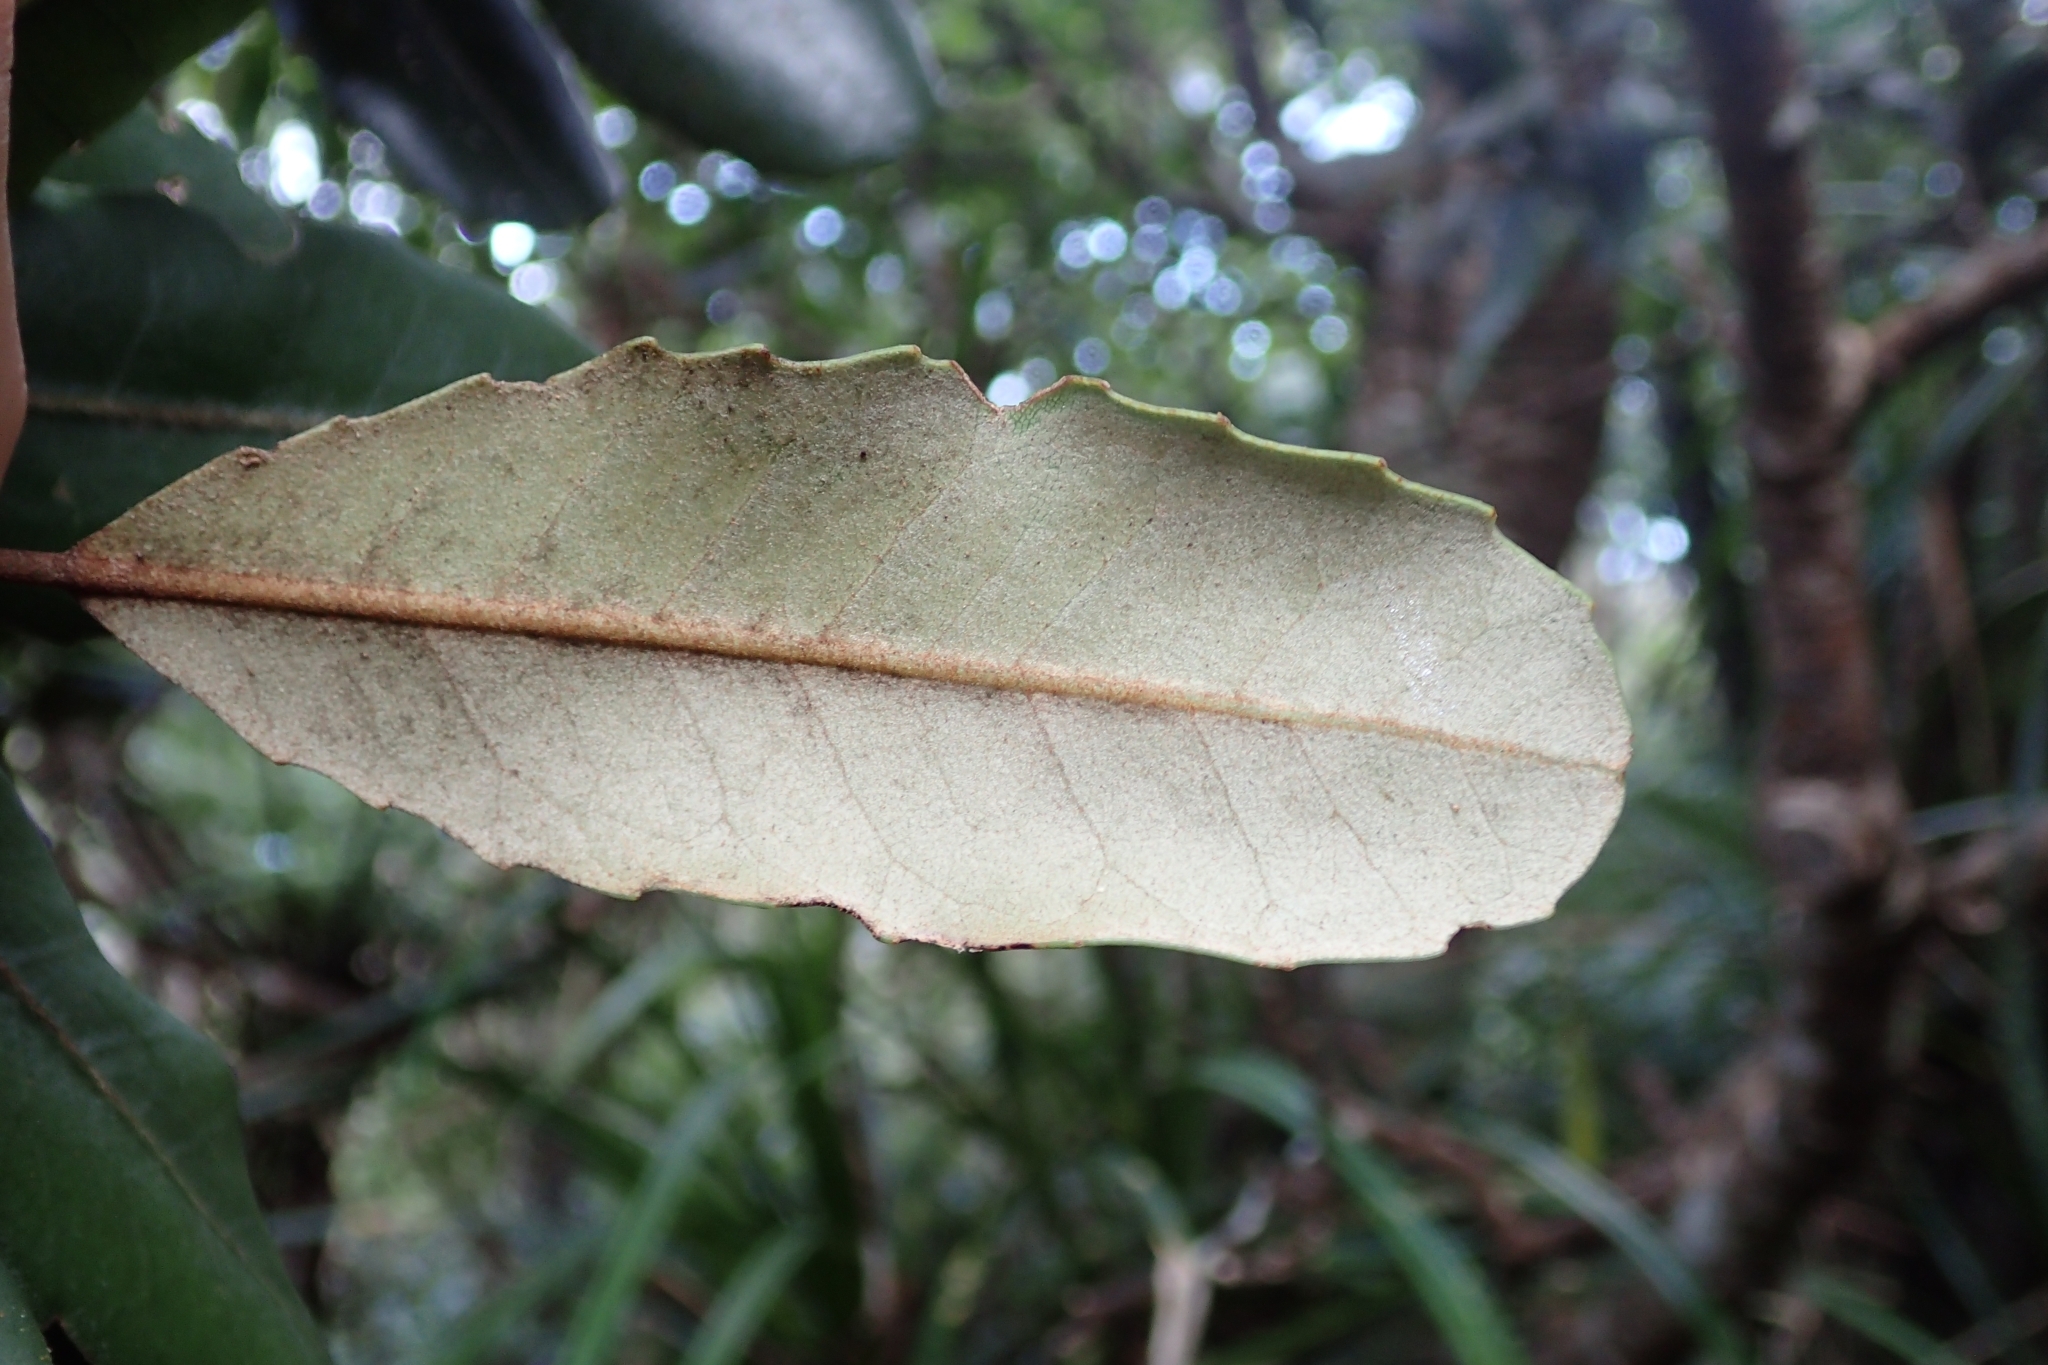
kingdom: Plantae
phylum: Tracheophyta
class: Magnoliopsida
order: Proteales
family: Proteaceae
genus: Knightia
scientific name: Knightia excelsa
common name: New zealand-honeysuckle
